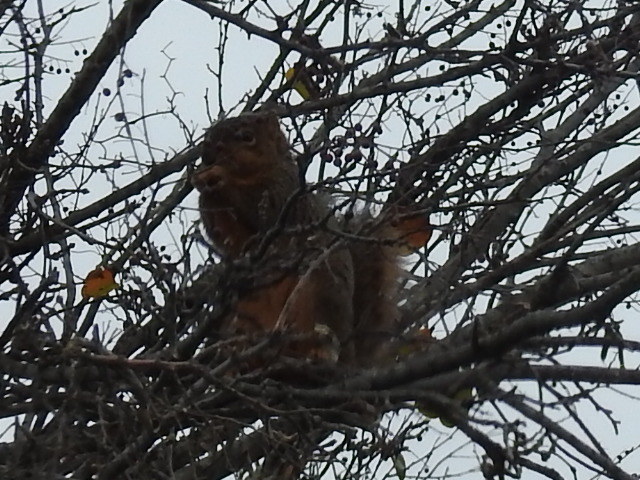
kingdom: Animalia
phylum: Chordata
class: Mammalia
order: Rodentia
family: Sciuridae
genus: Sciurus
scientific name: Sciurus niger
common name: Fox squirrel
